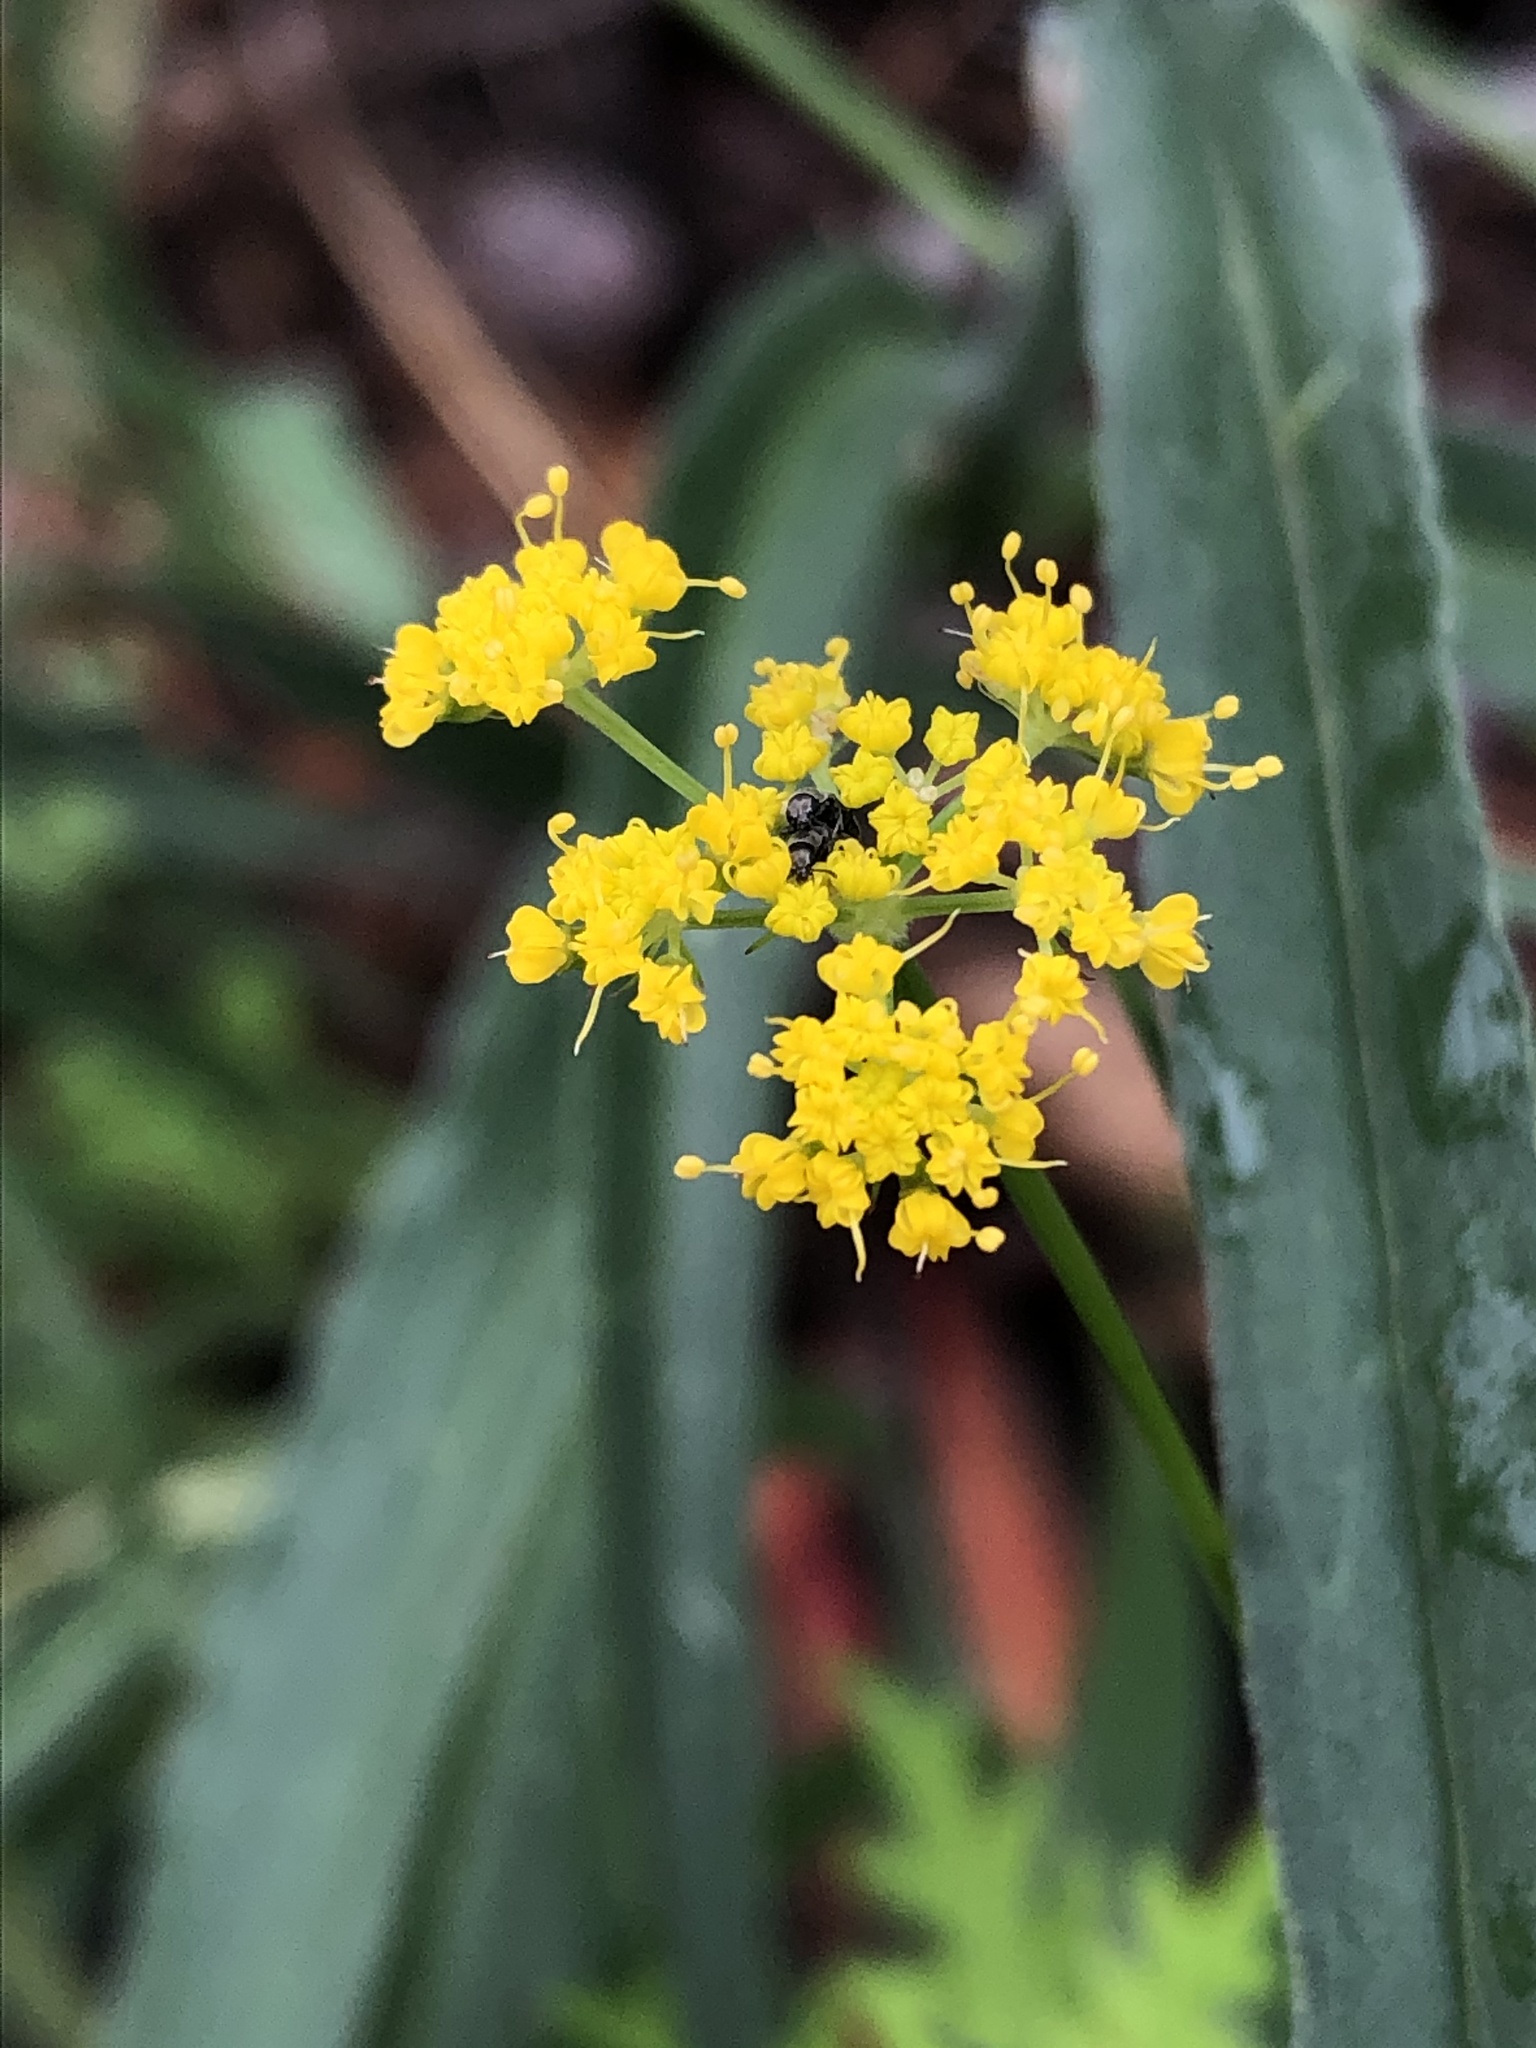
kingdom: Plantae
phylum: Tracheophyta
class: Magnoliopsida
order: Apiales
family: Apiaceae
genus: Cymopterus
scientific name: Cymopterus lemmonii
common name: Lemmon's spring-parsley
